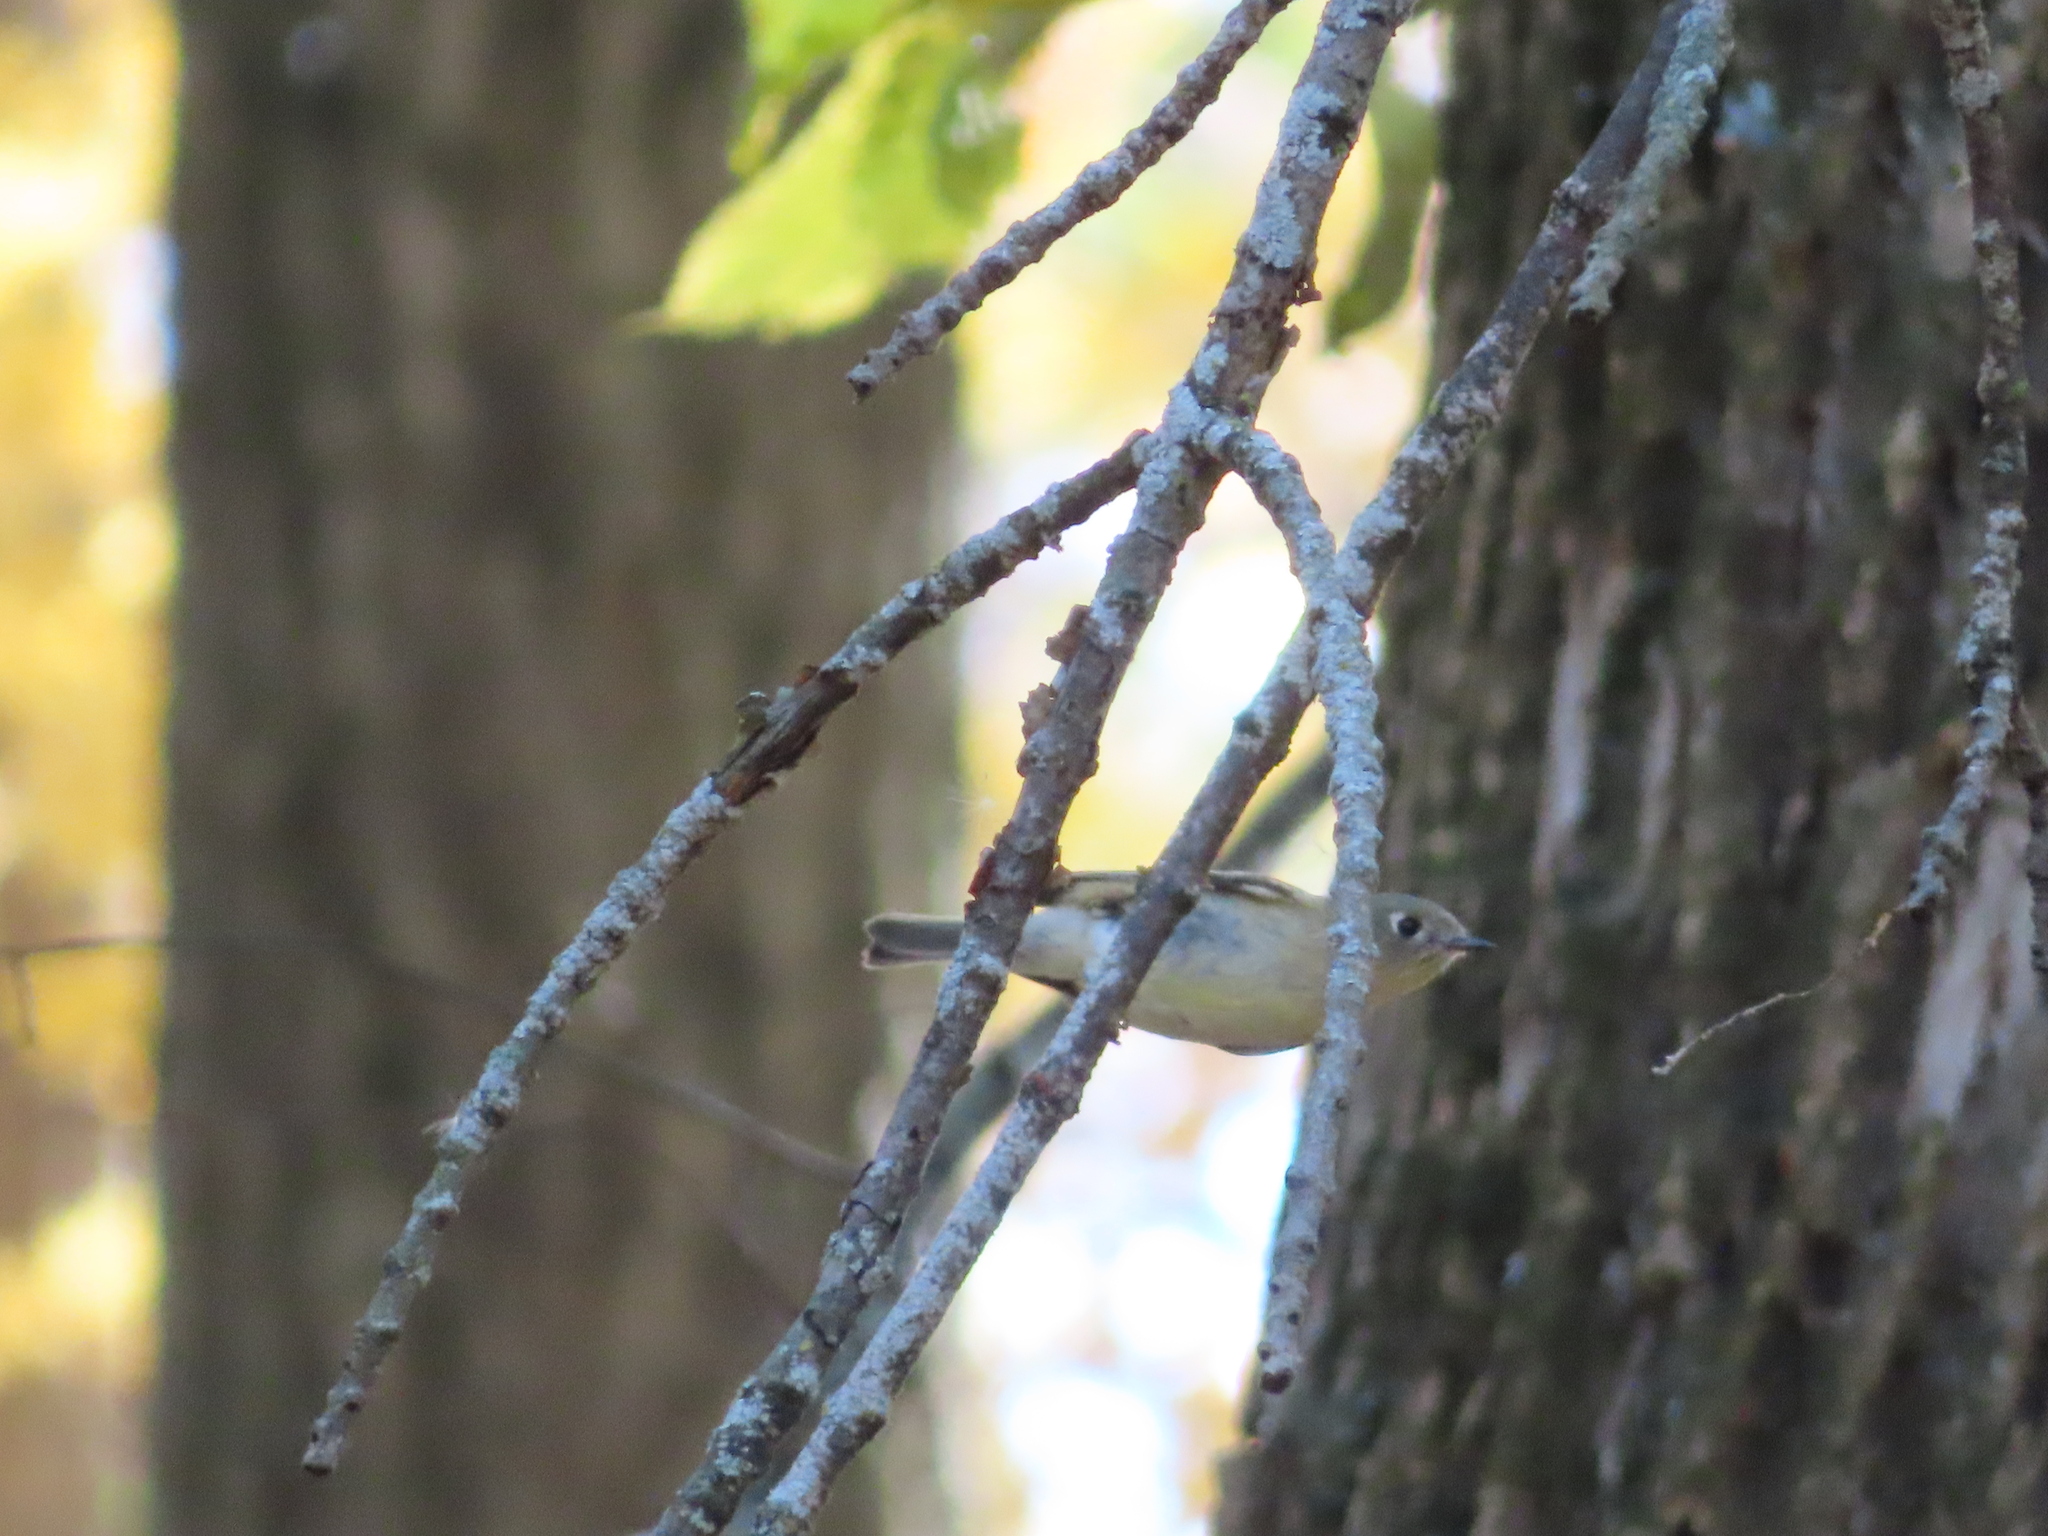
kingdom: Animalia
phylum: Chordata
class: Aves
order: Passeriformes
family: Regulidae
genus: Regulus
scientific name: Regulus calendula
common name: Ruby-crowned kinglet
